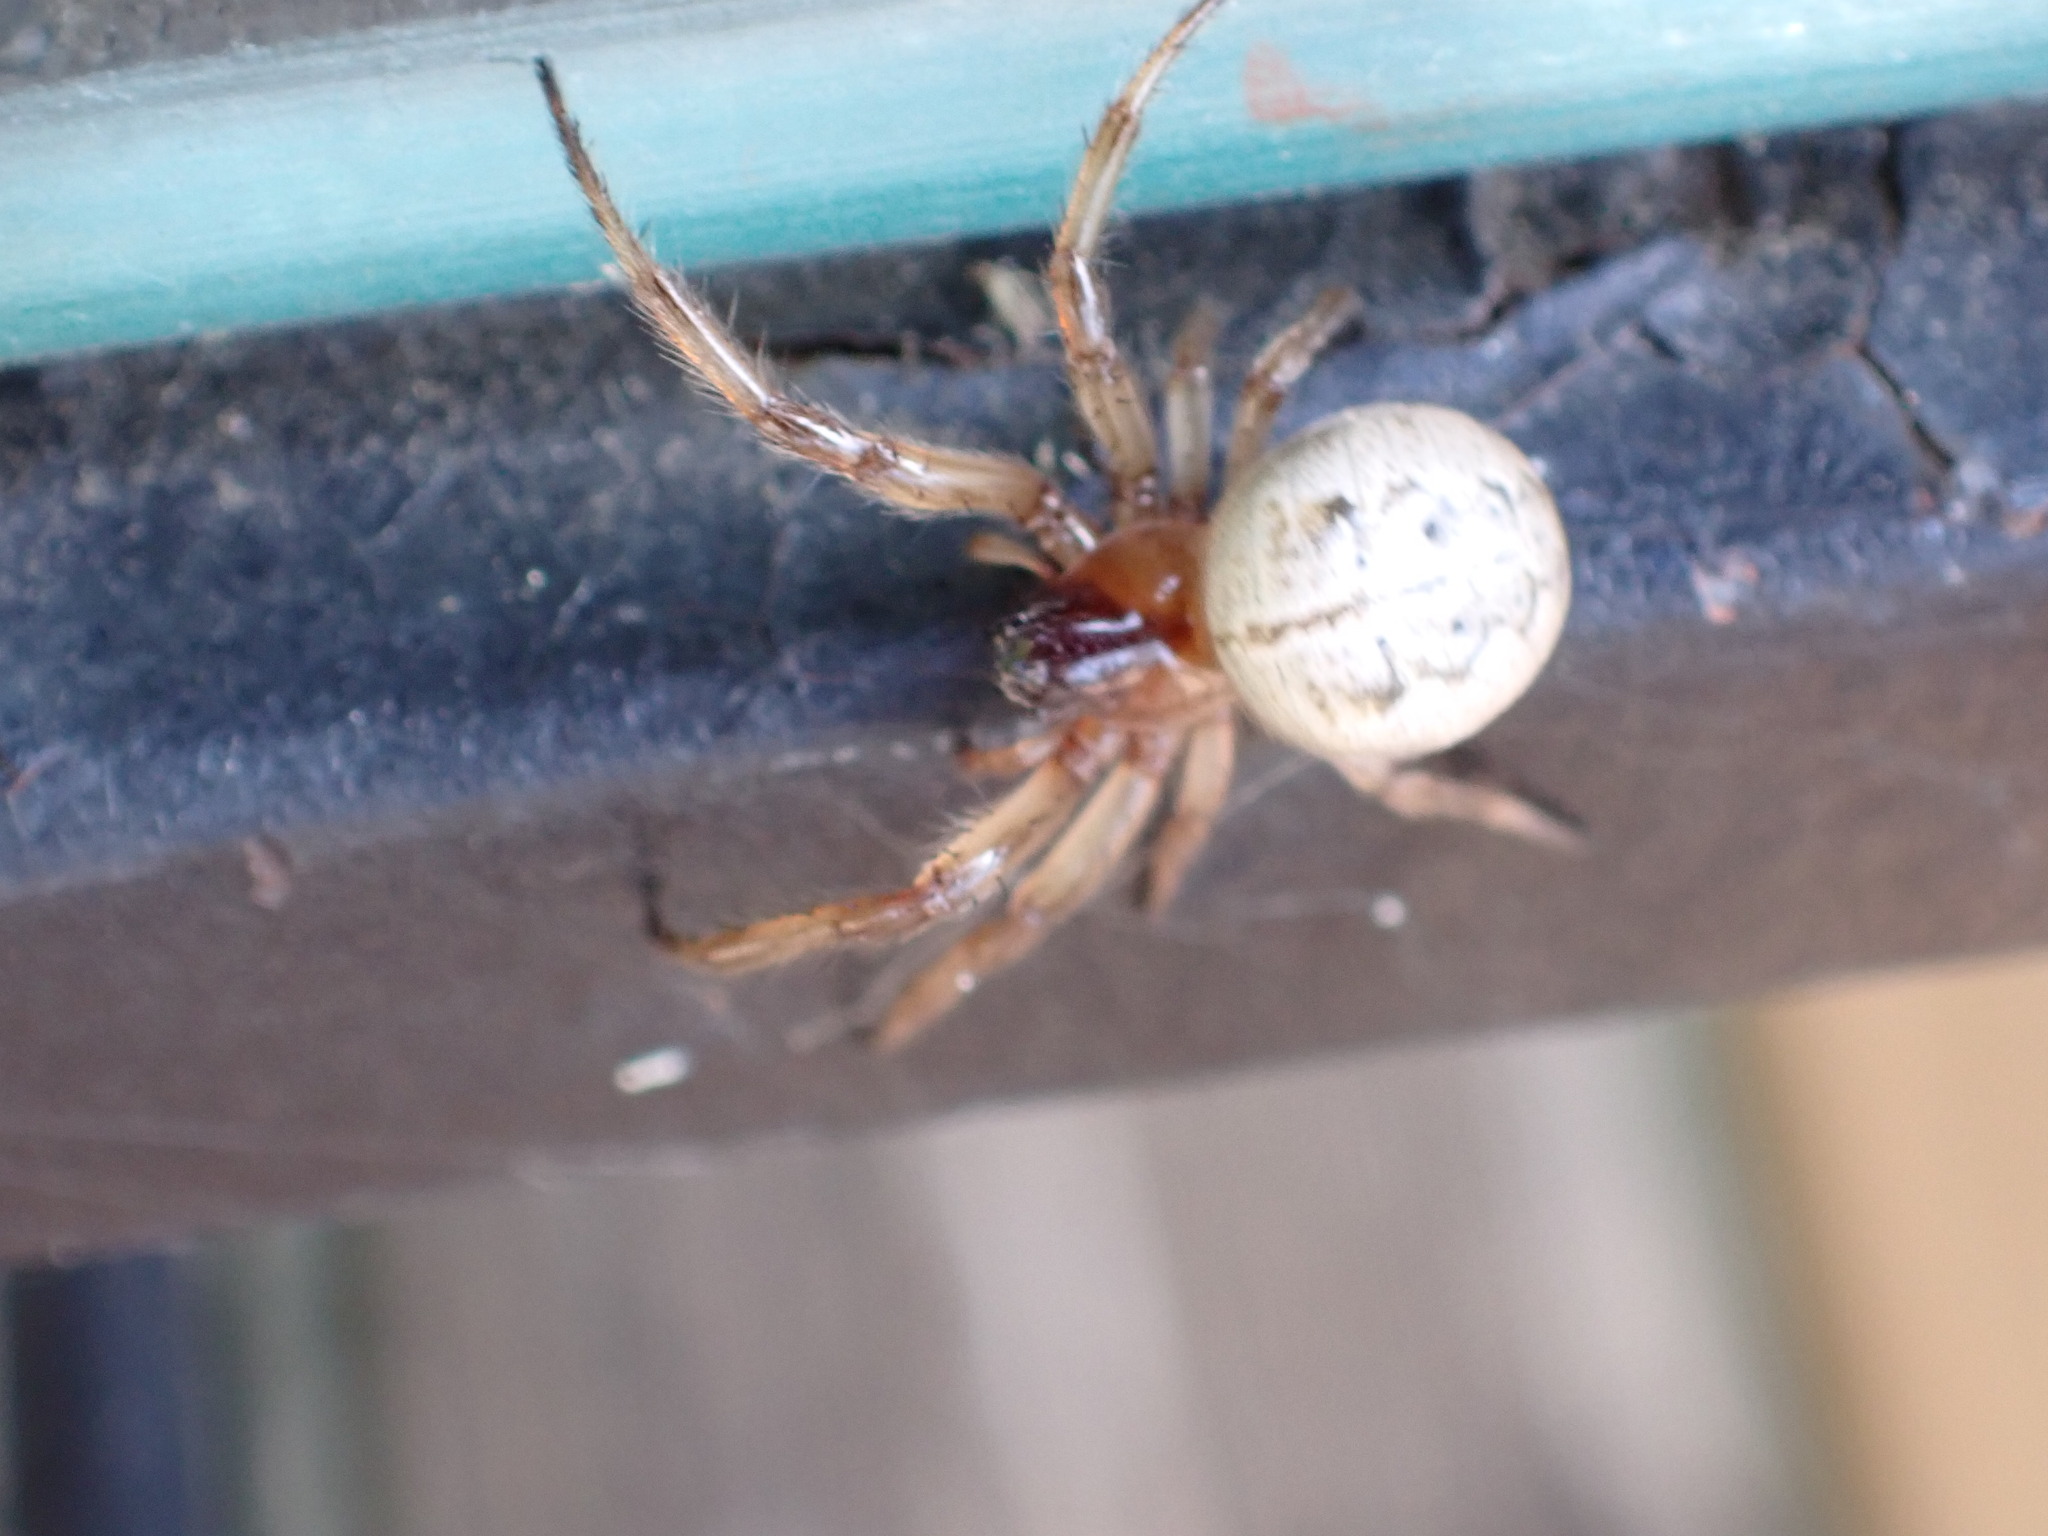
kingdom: Animalia
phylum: Arthropoda
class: Arachnida
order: Araneae
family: Araneidae
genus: Metazygia
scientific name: Metazygia wittfeldae
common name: Orb weavers
